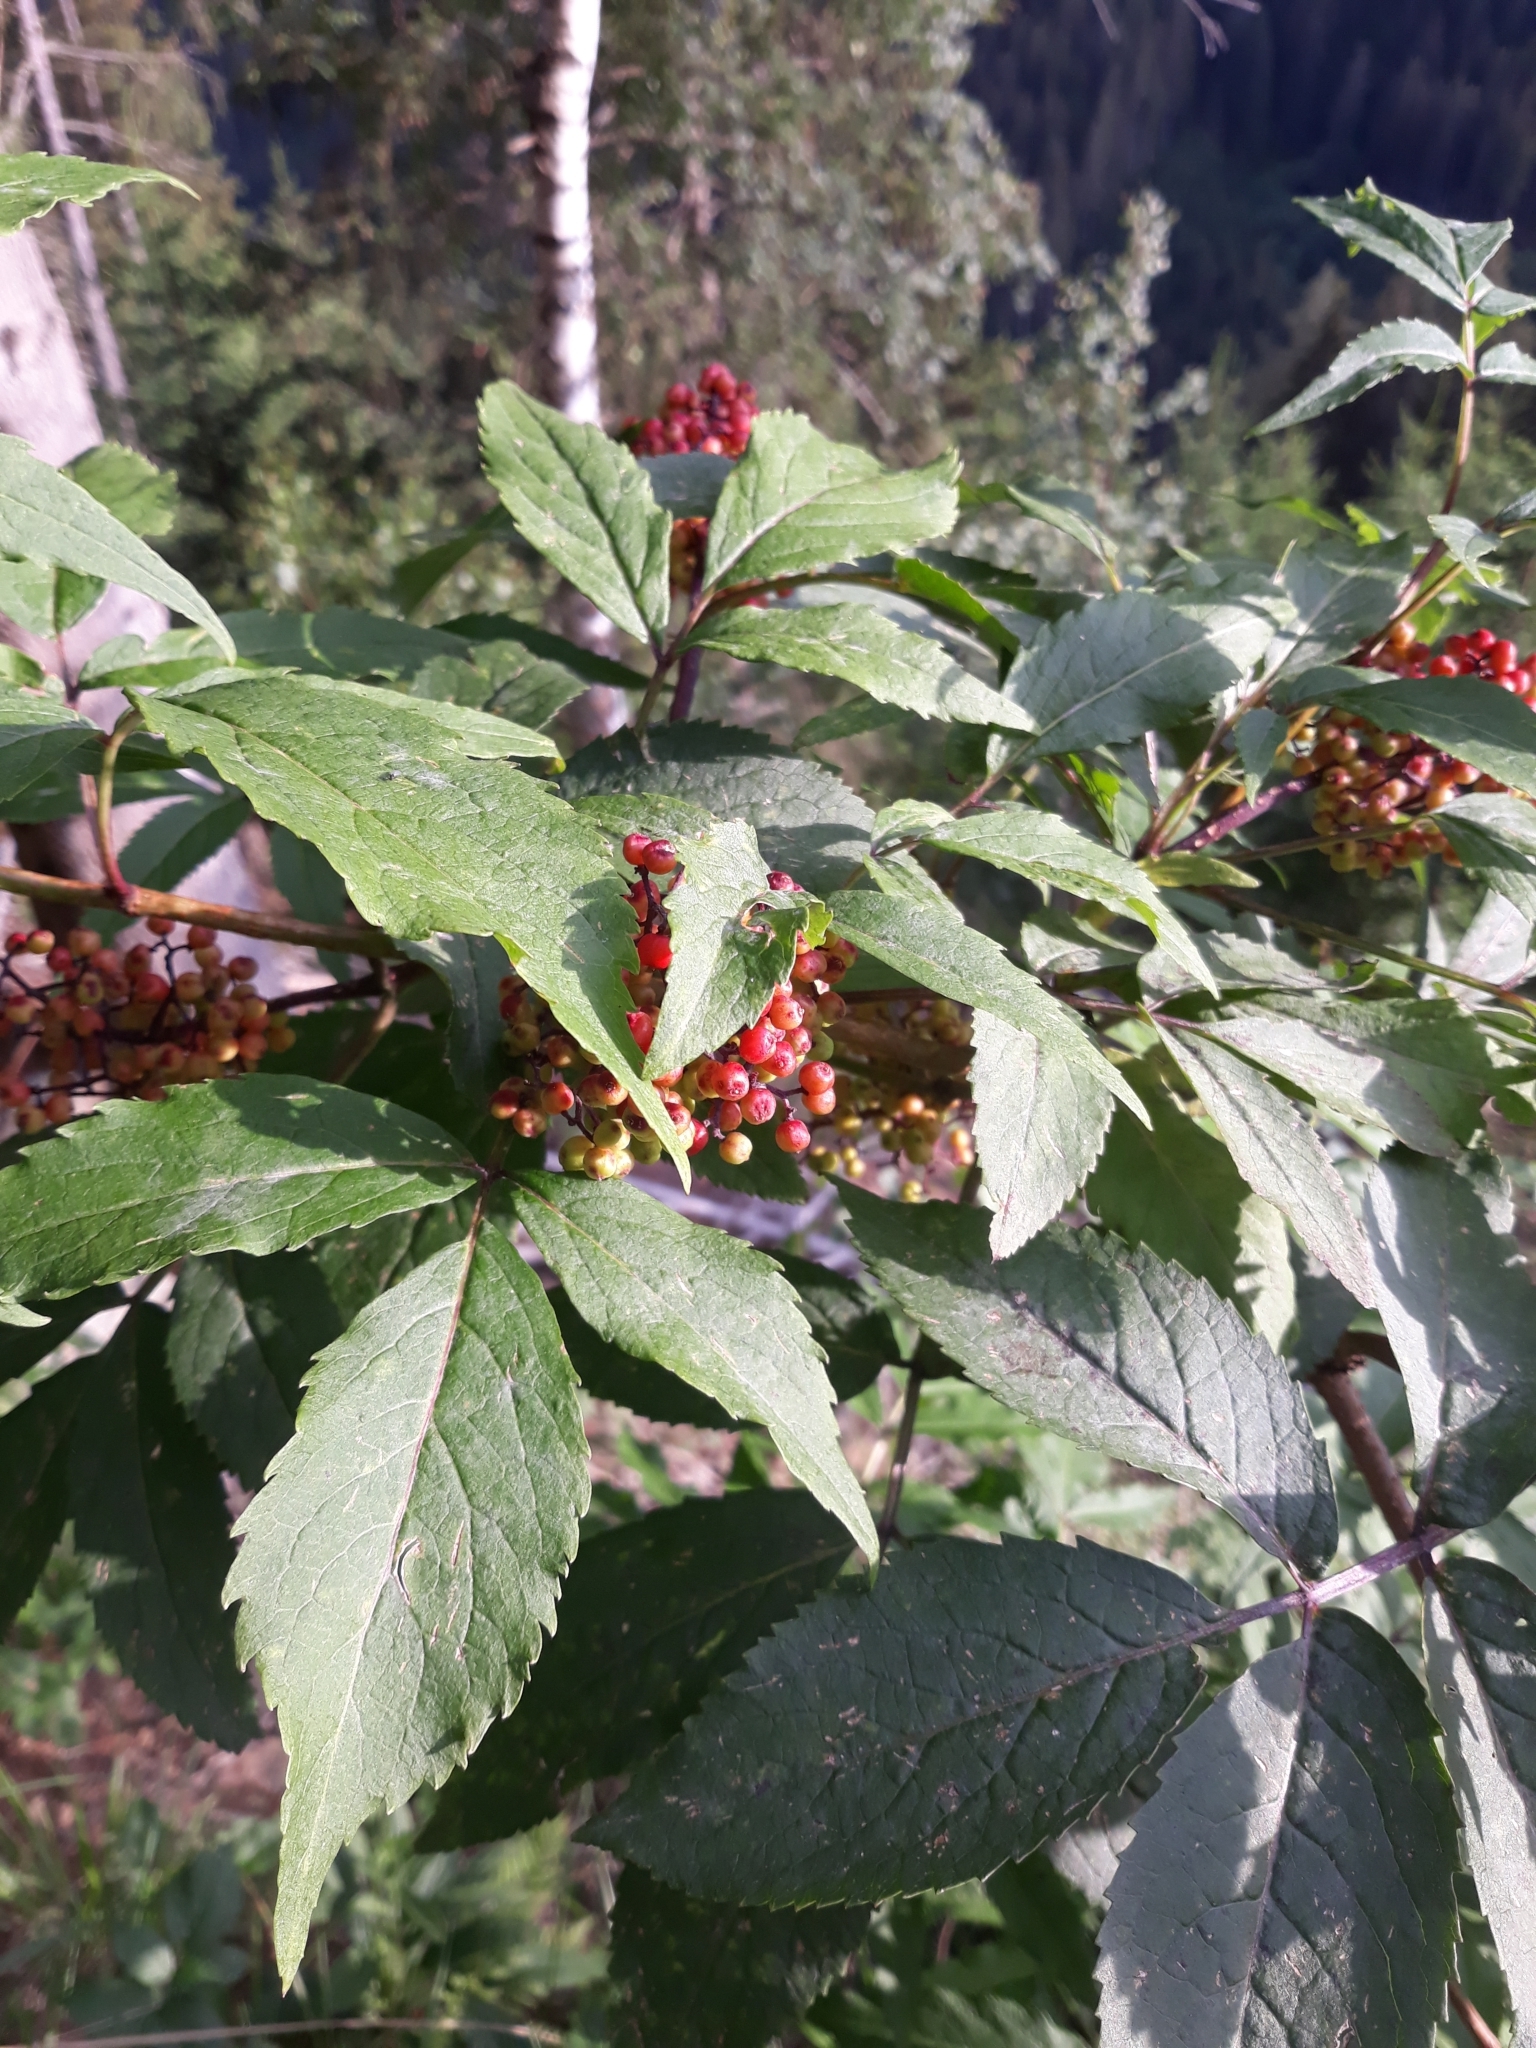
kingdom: Plantae
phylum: Tracheophyta
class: Magnoliopsida
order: Dipsacales
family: Viburnaceae
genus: Sambucus
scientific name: Sambucus racemosa
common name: Red-berried elder
